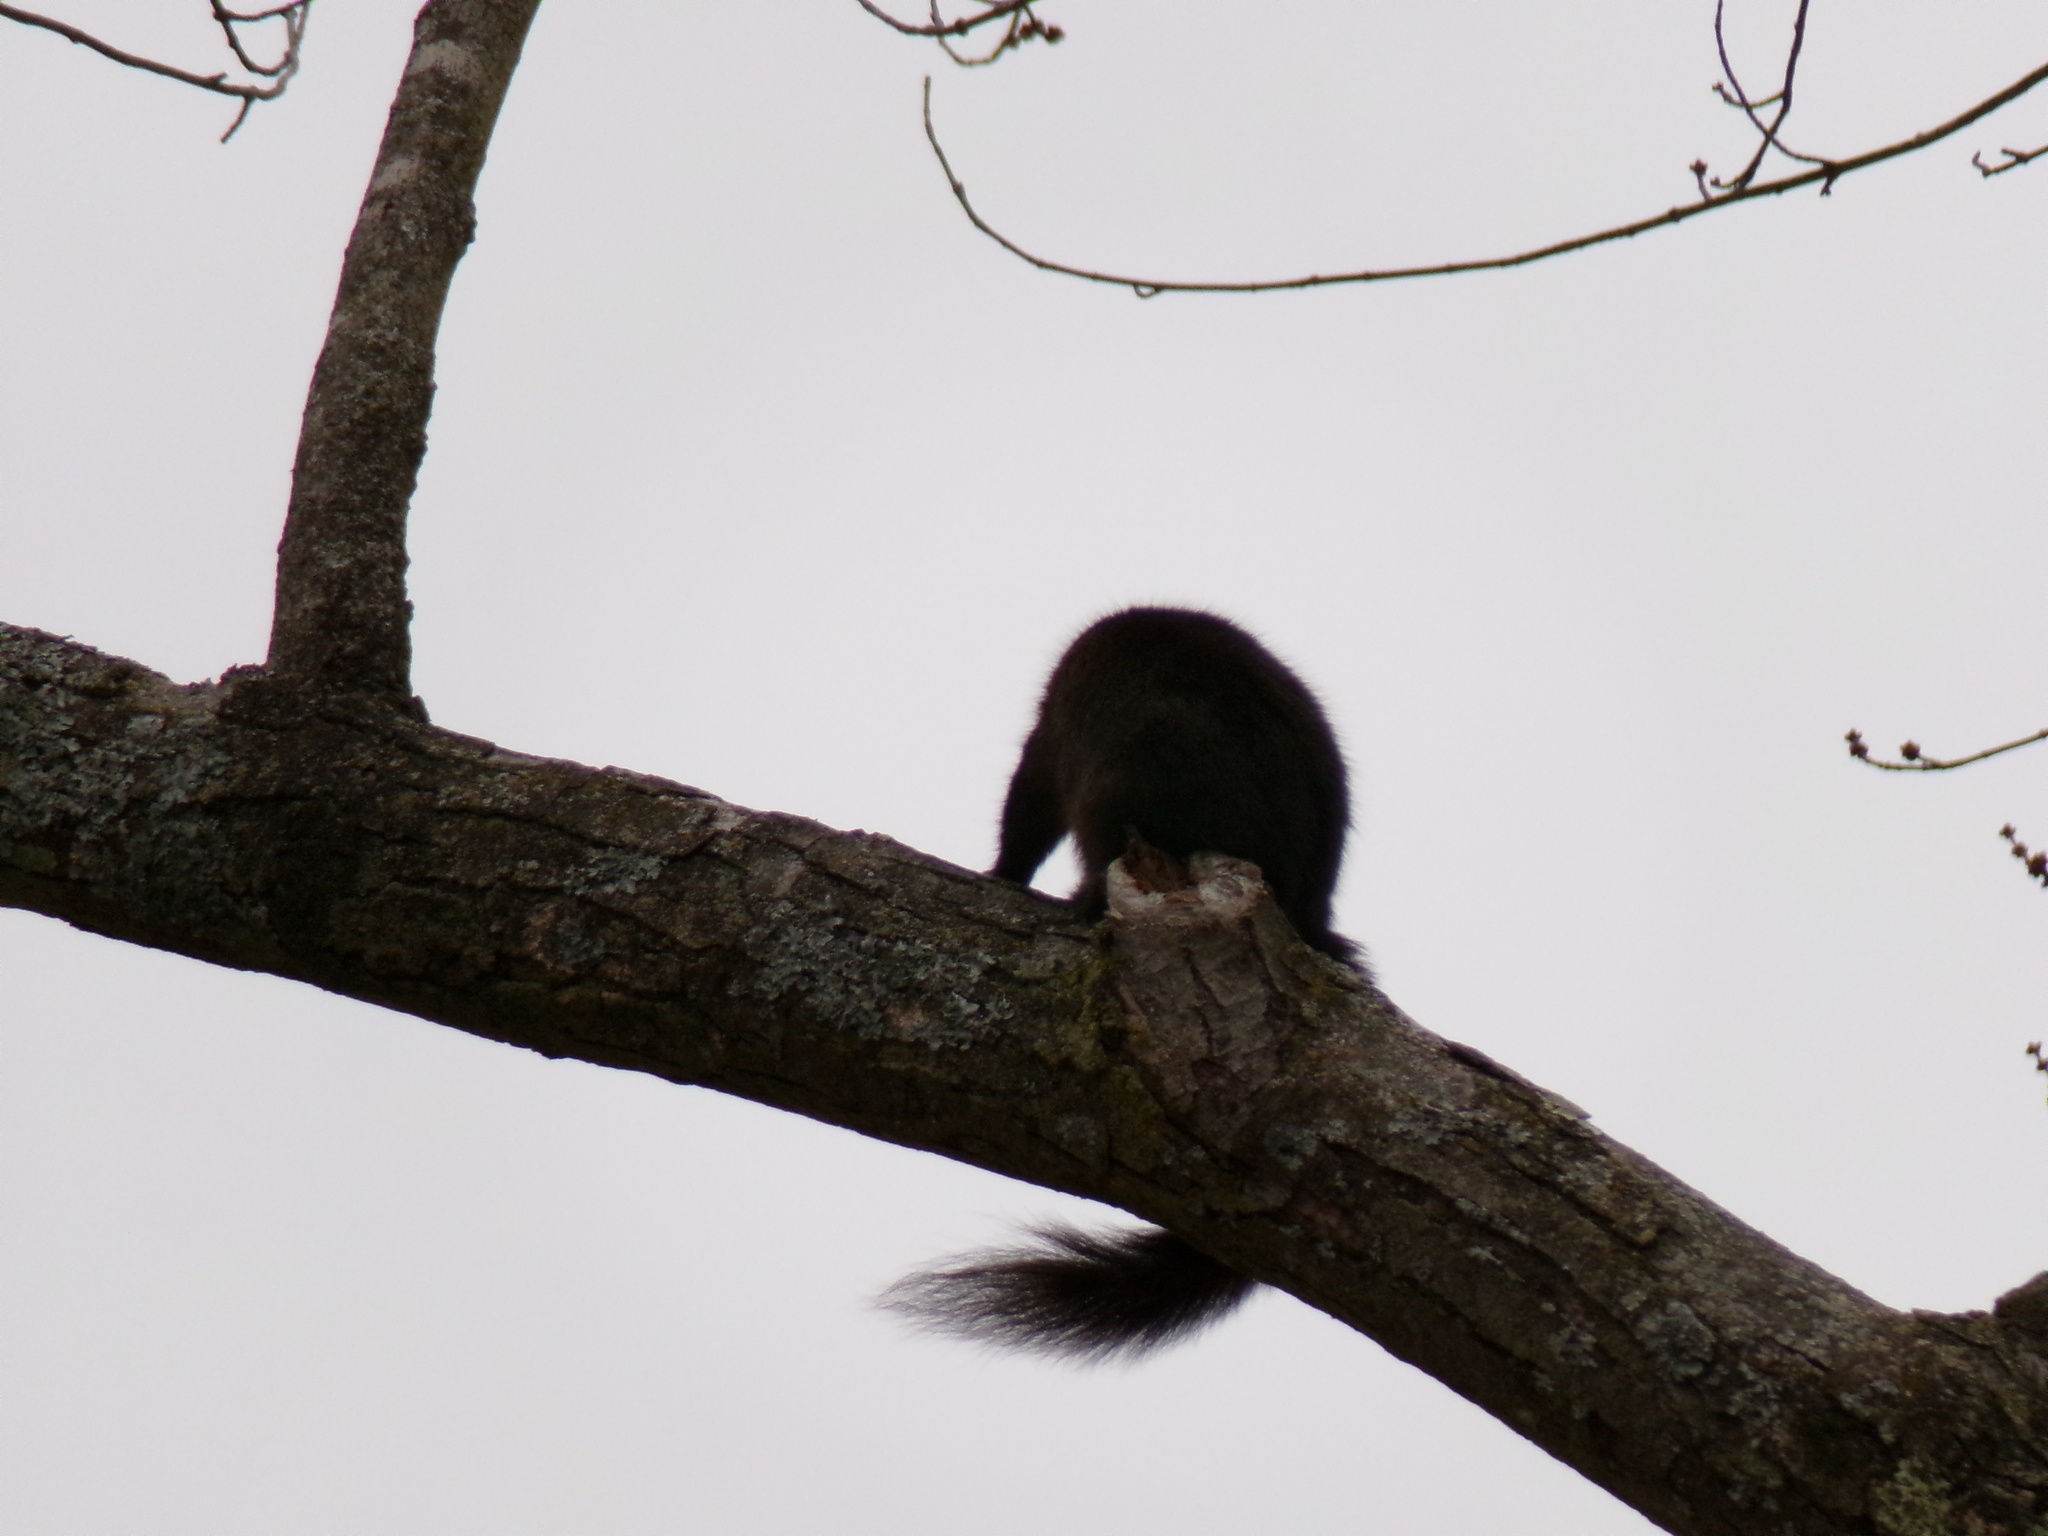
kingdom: Animalia
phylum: Chordata
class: Mammalia
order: Rodentia
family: Sciuridae
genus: Sciurus
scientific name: Sciurus carolinensis
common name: Eastern gray squirrel
